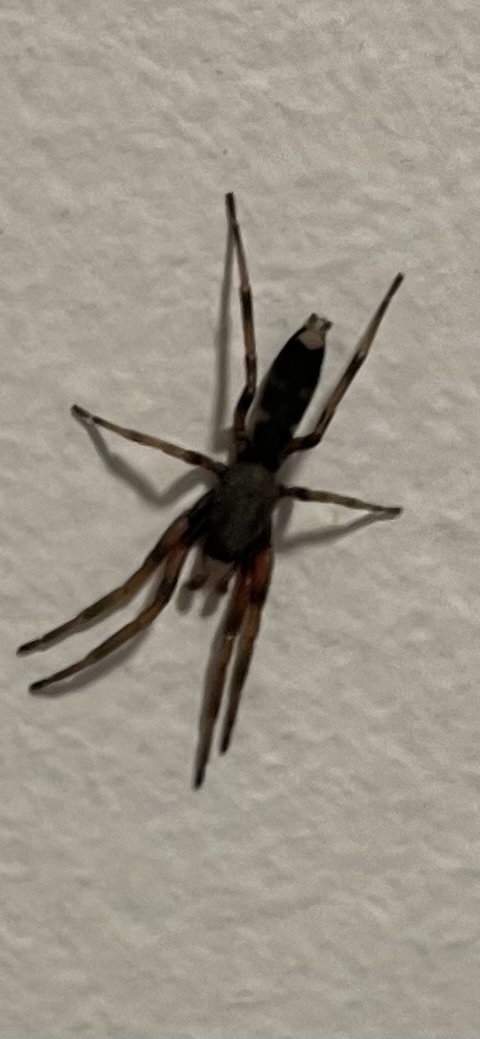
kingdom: Animalia
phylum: Arthropoda
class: Arachnida
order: Araneae
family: Lamponidae
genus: Lampona
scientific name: Lampona murina
